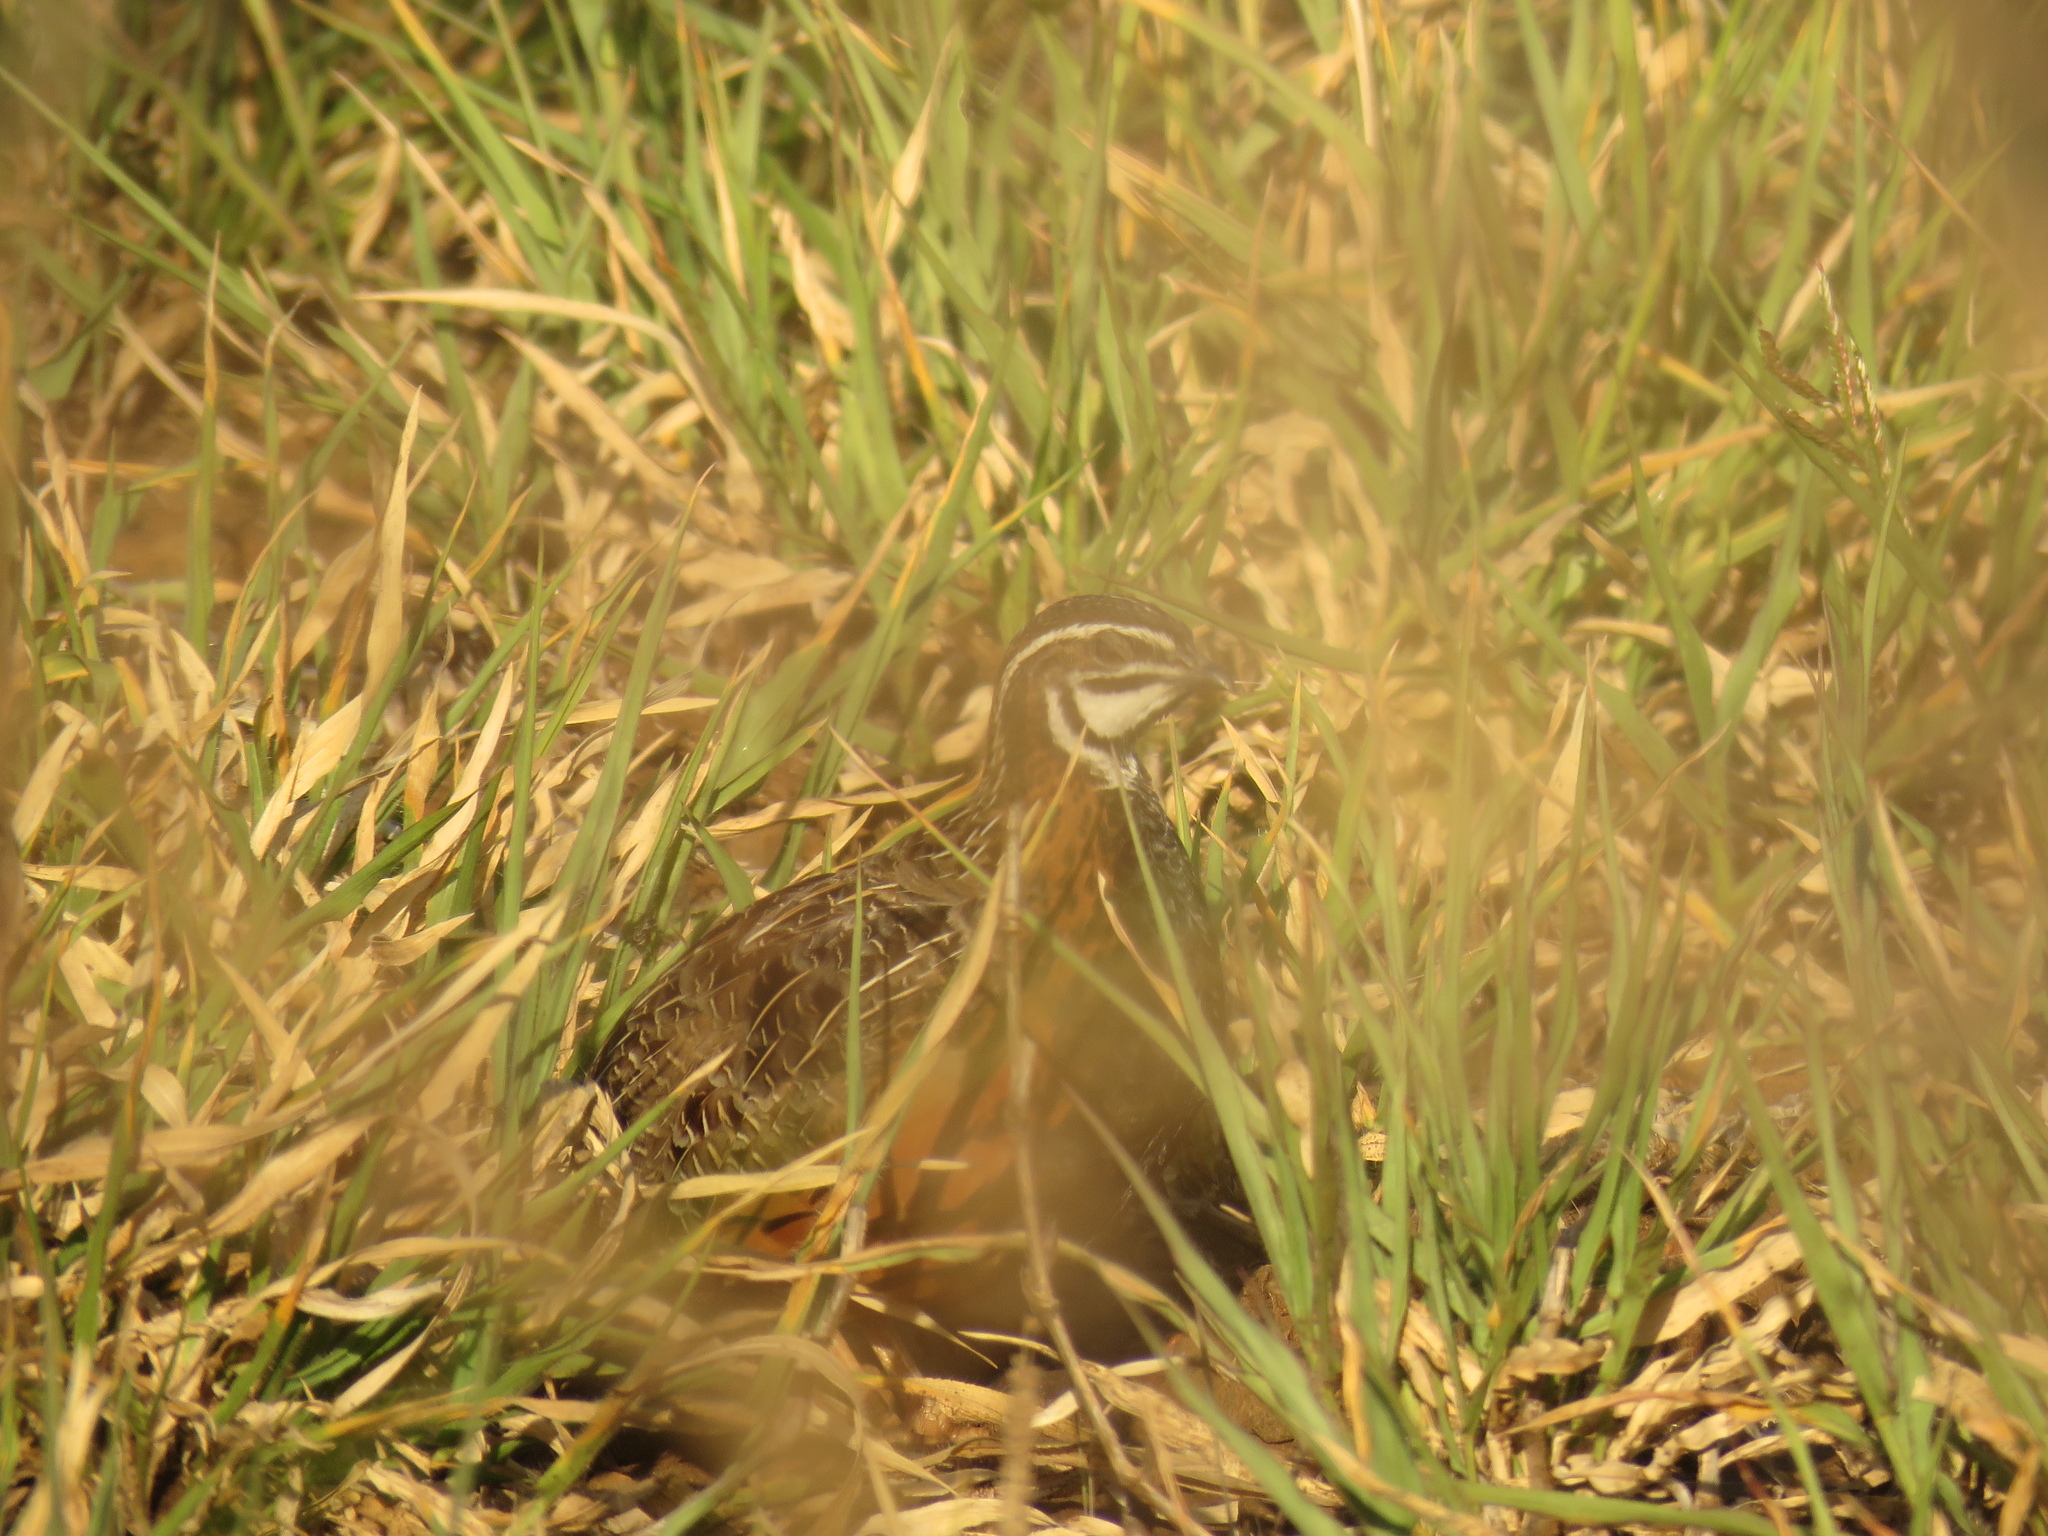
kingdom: Animalia
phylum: Chordata
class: Aves
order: Galliformes
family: Phasianidae
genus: Coturnix
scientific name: Coturnix delegorguei
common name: Harlequin quail
